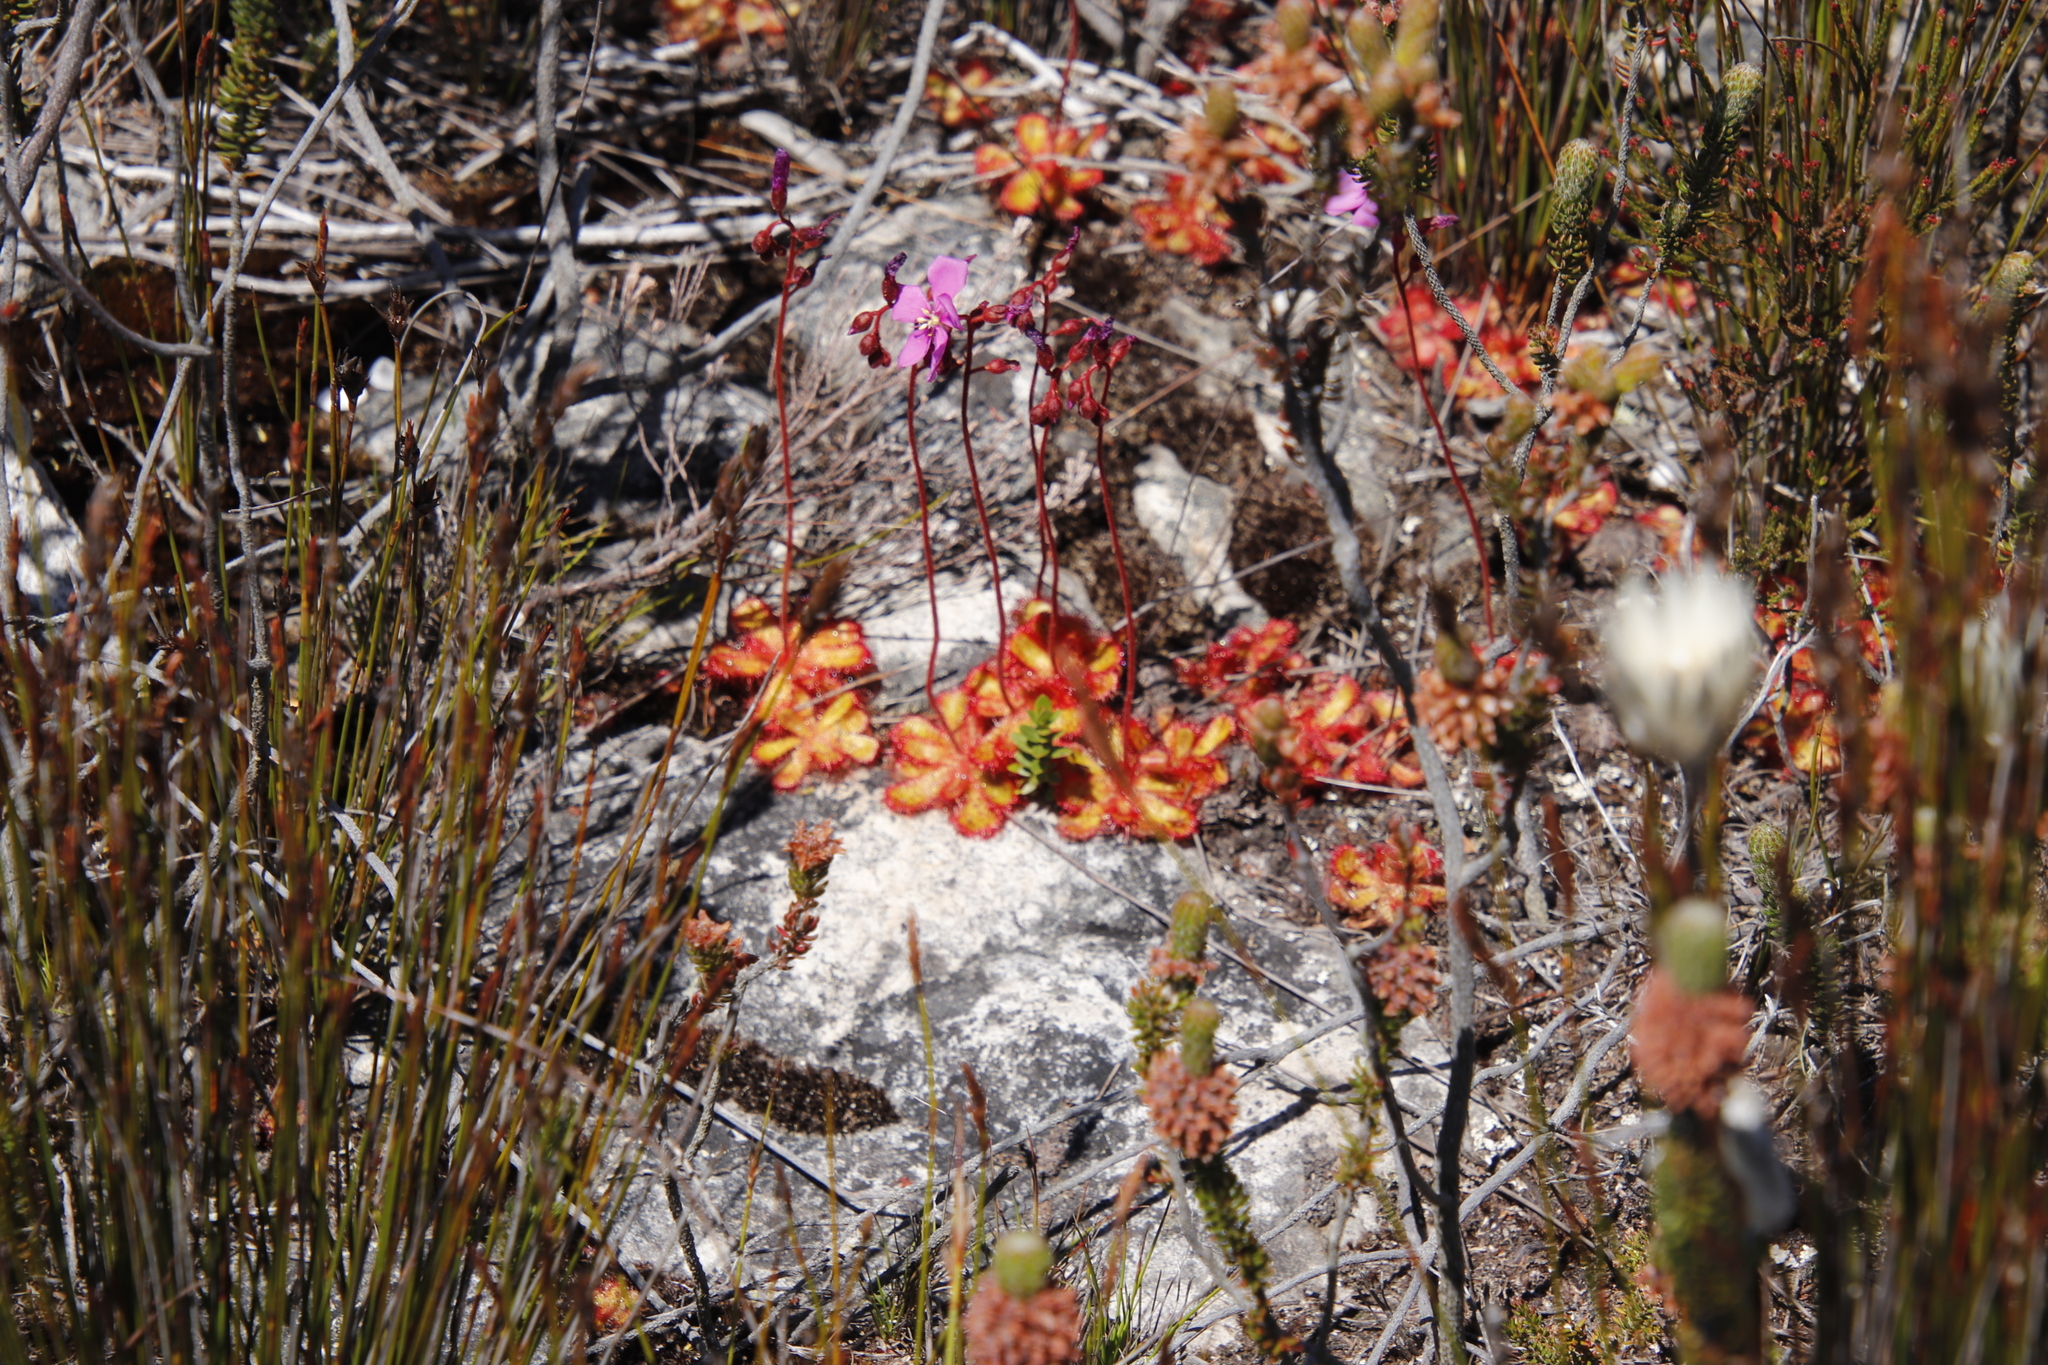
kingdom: Plantae
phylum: Tracheophyta
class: Magnoliopsida
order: Caryophyllales
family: Droseraceae
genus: Drosera
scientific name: Drosera cuneifolia
